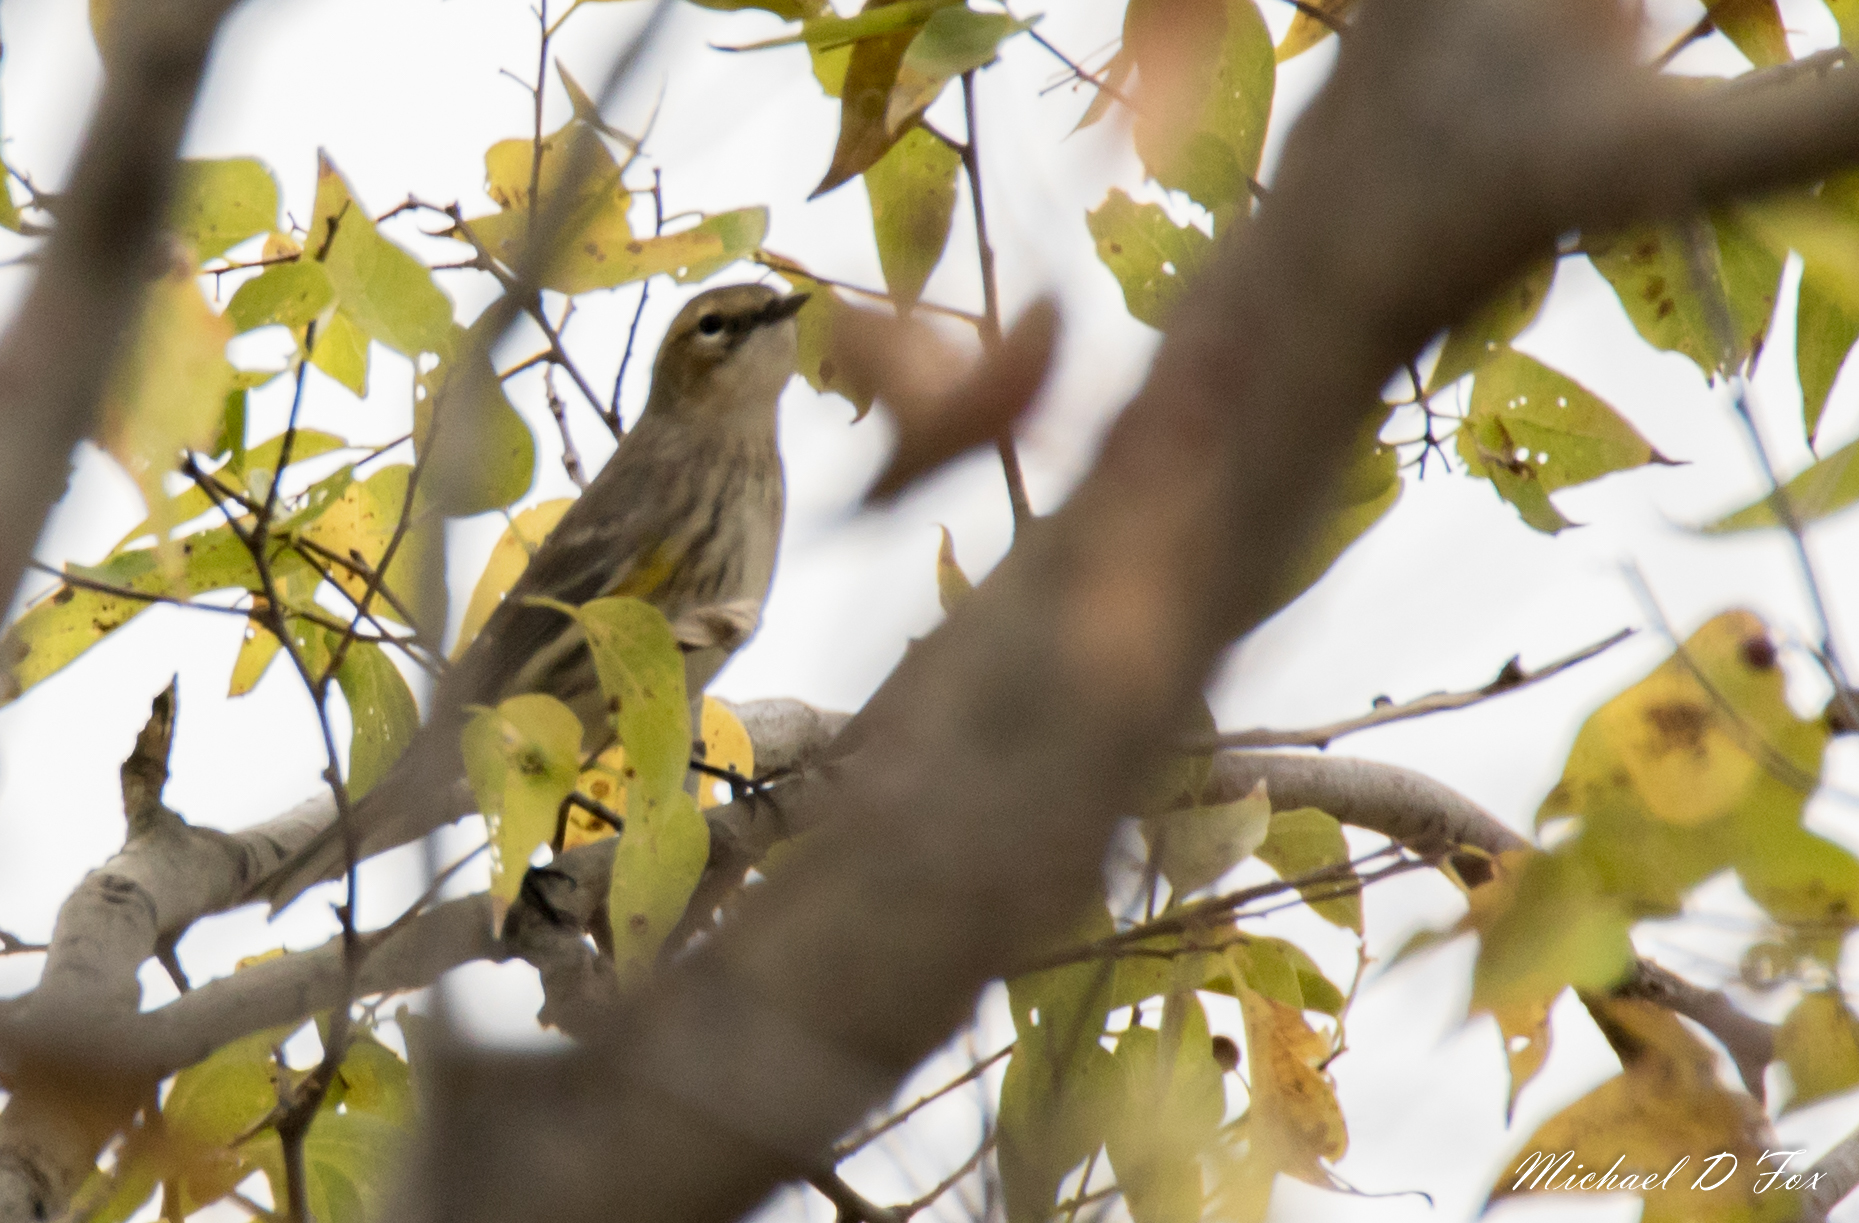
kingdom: Animalia
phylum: Chordata
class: Aves
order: Passeriformes
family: Parulidae
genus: Setophaga
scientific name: Setophaga coronata
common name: Myrtle warbler
